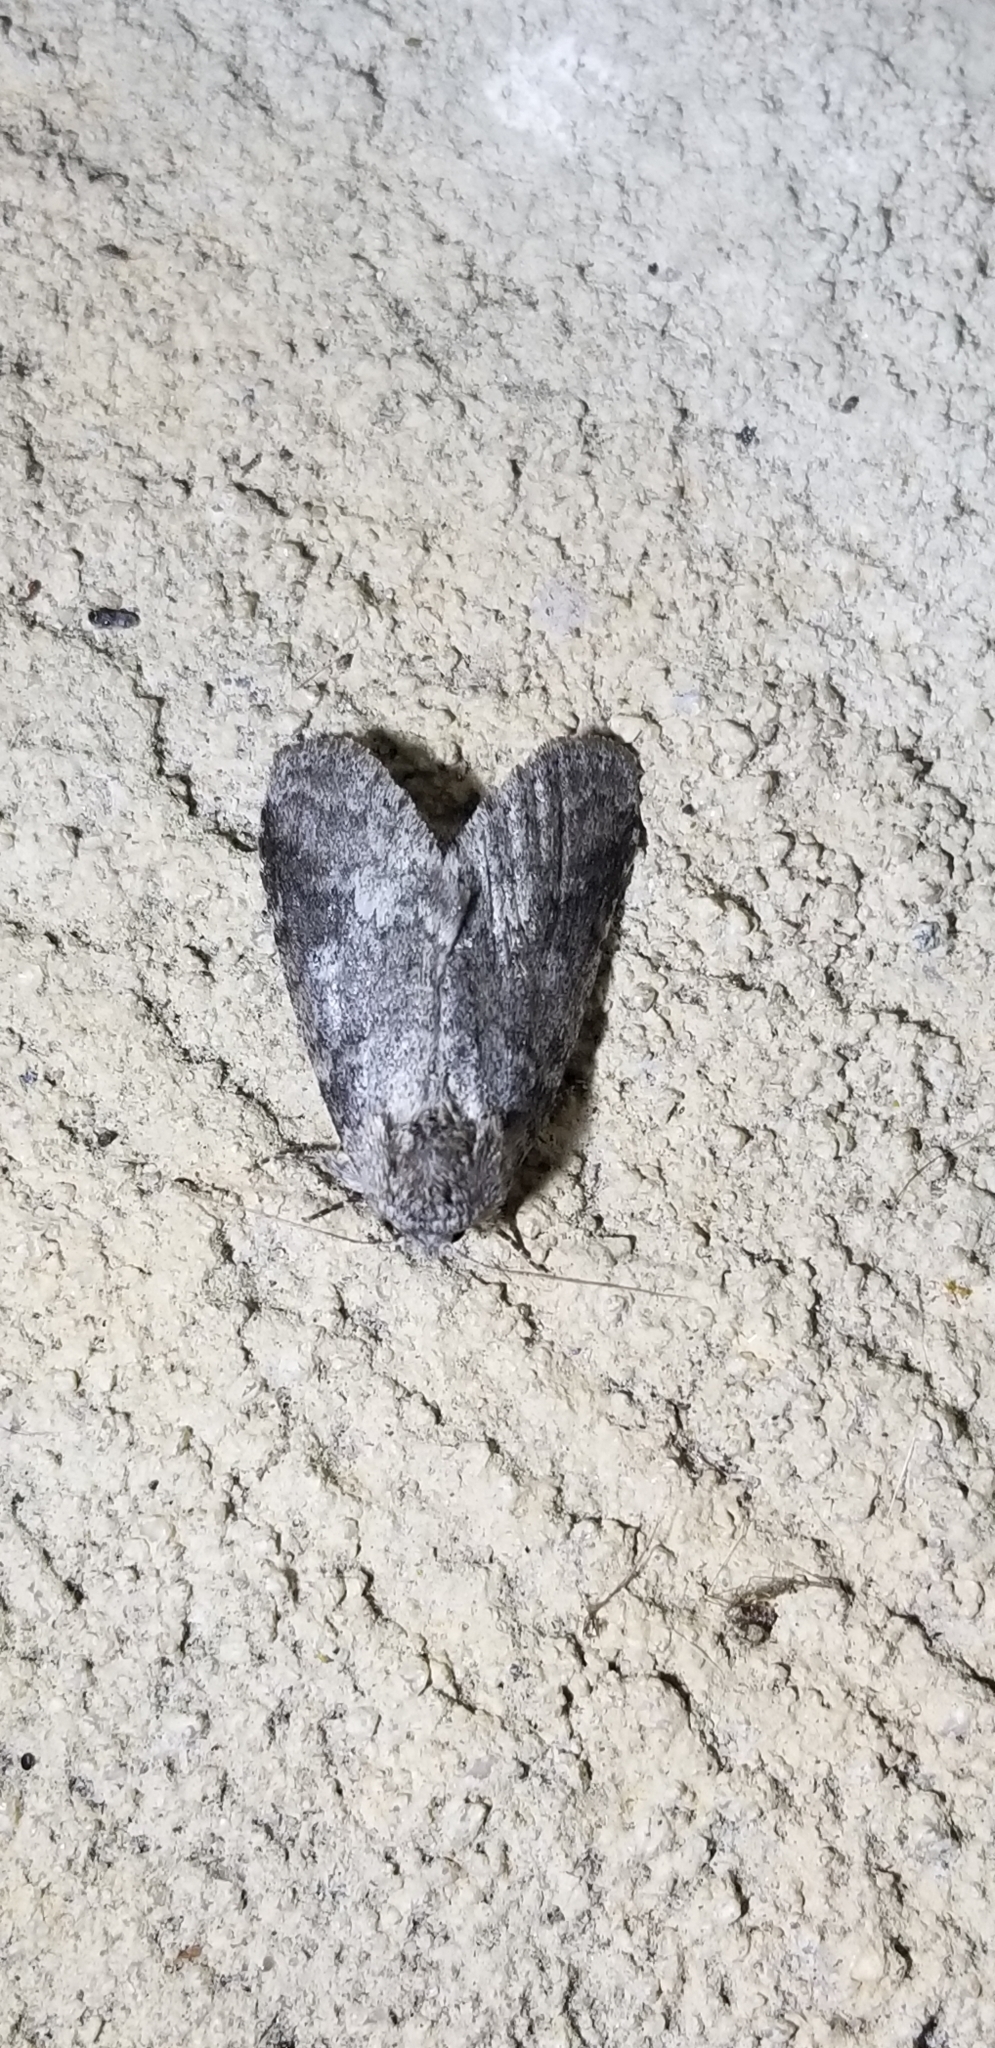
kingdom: Animalia
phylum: Arthropoda
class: Insecta
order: Lepidoptera
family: Notodontidae
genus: Lochmaeus
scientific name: Lochmaeus manteo
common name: Variable oakleaf caterpillar moth
